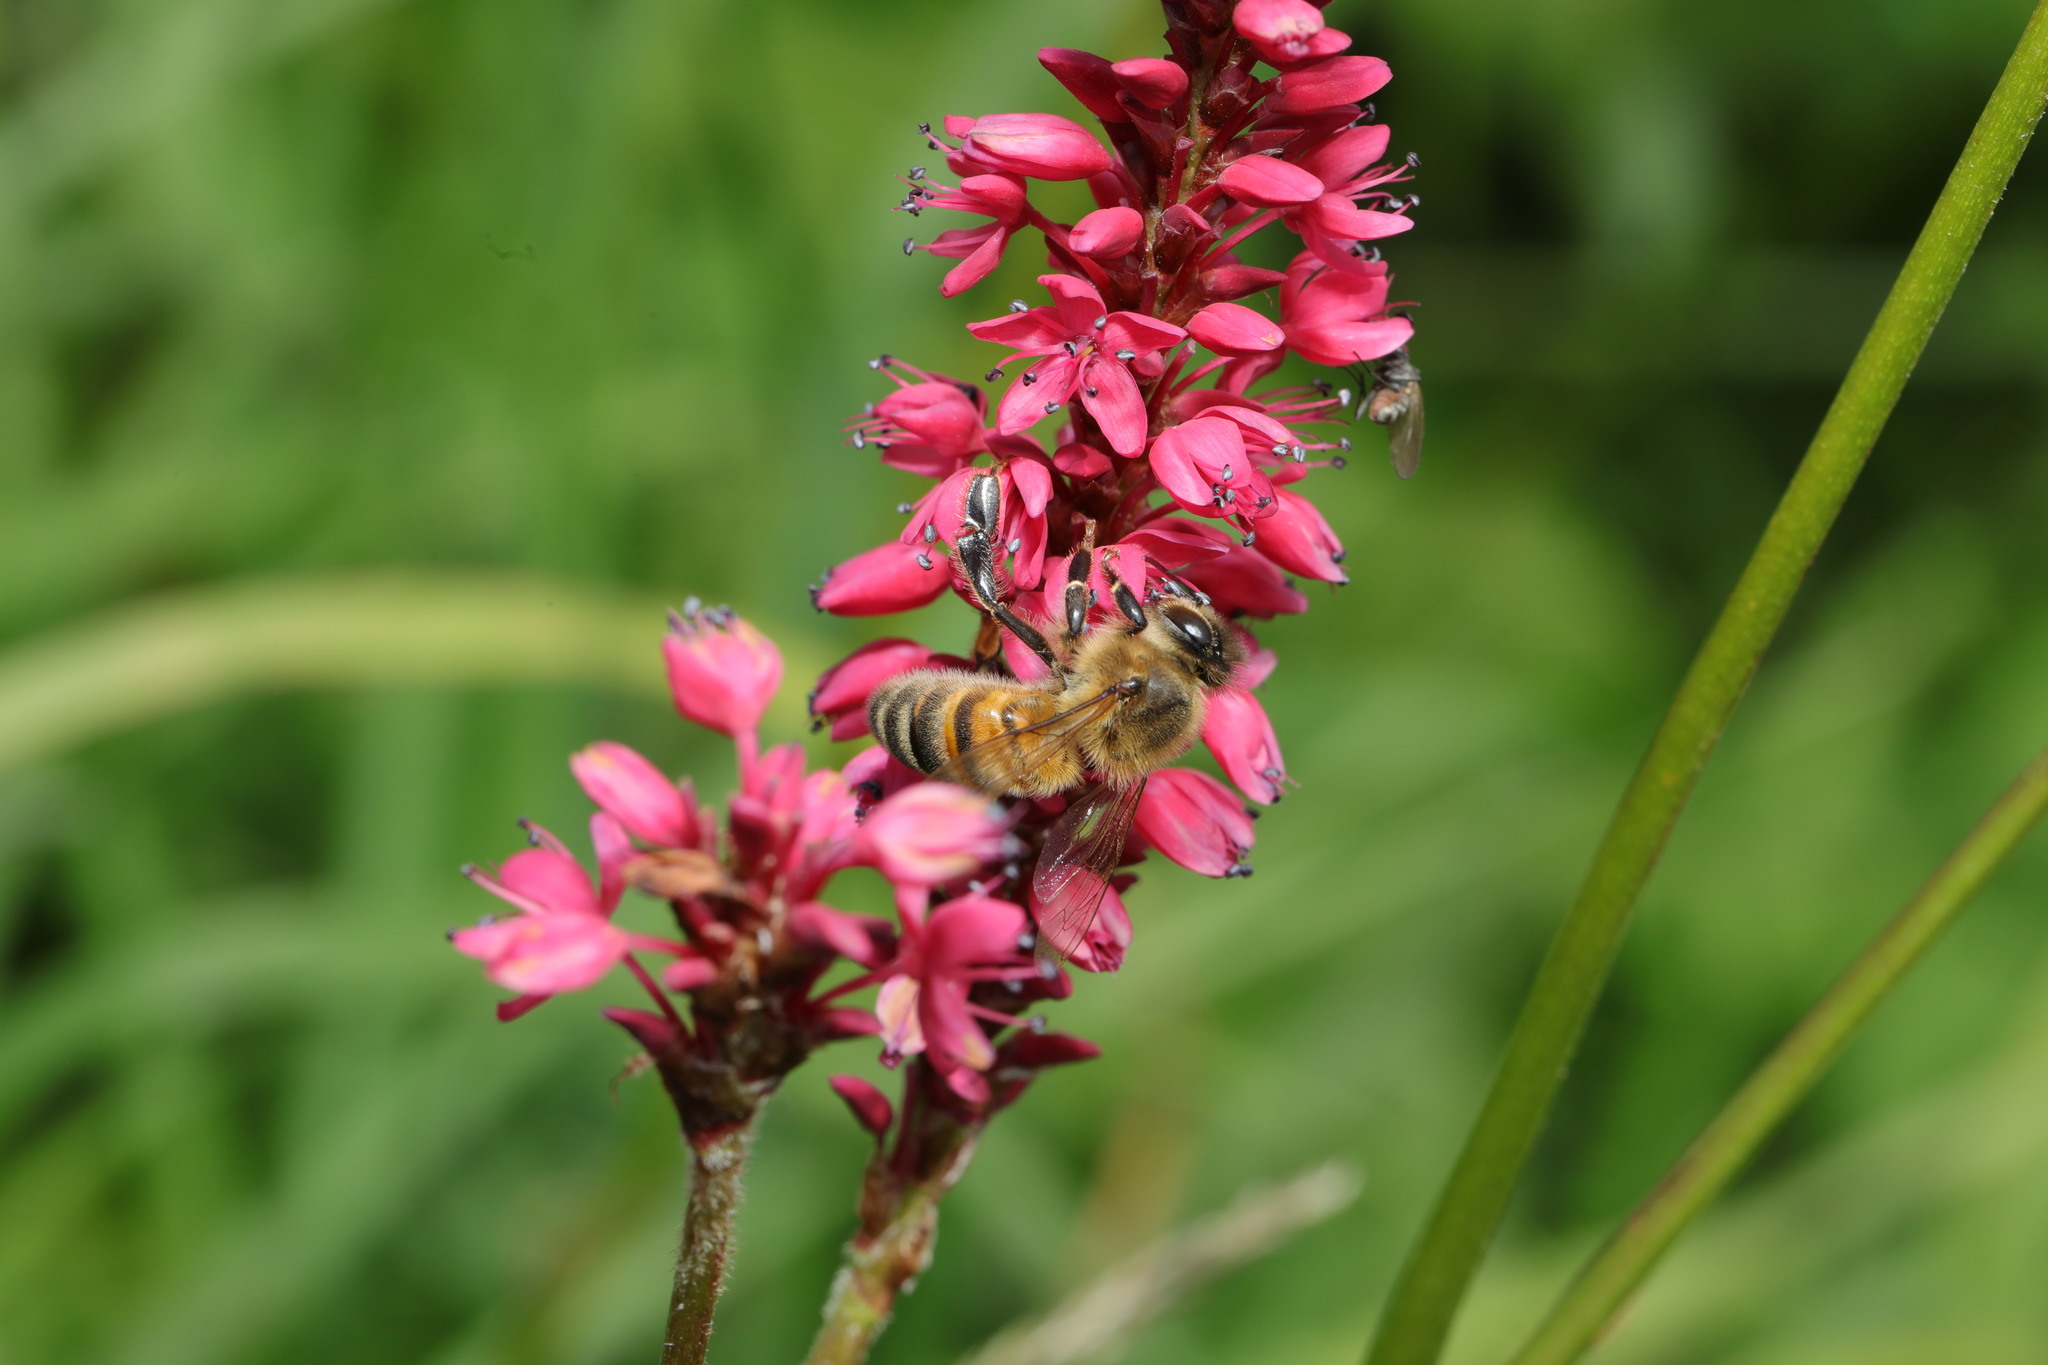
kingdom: Animalia
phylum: Arthropoda
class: Insecta
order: Hymenoptera
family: Apidae
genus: Apis
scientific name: Apis mellifera
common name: Honey bee
